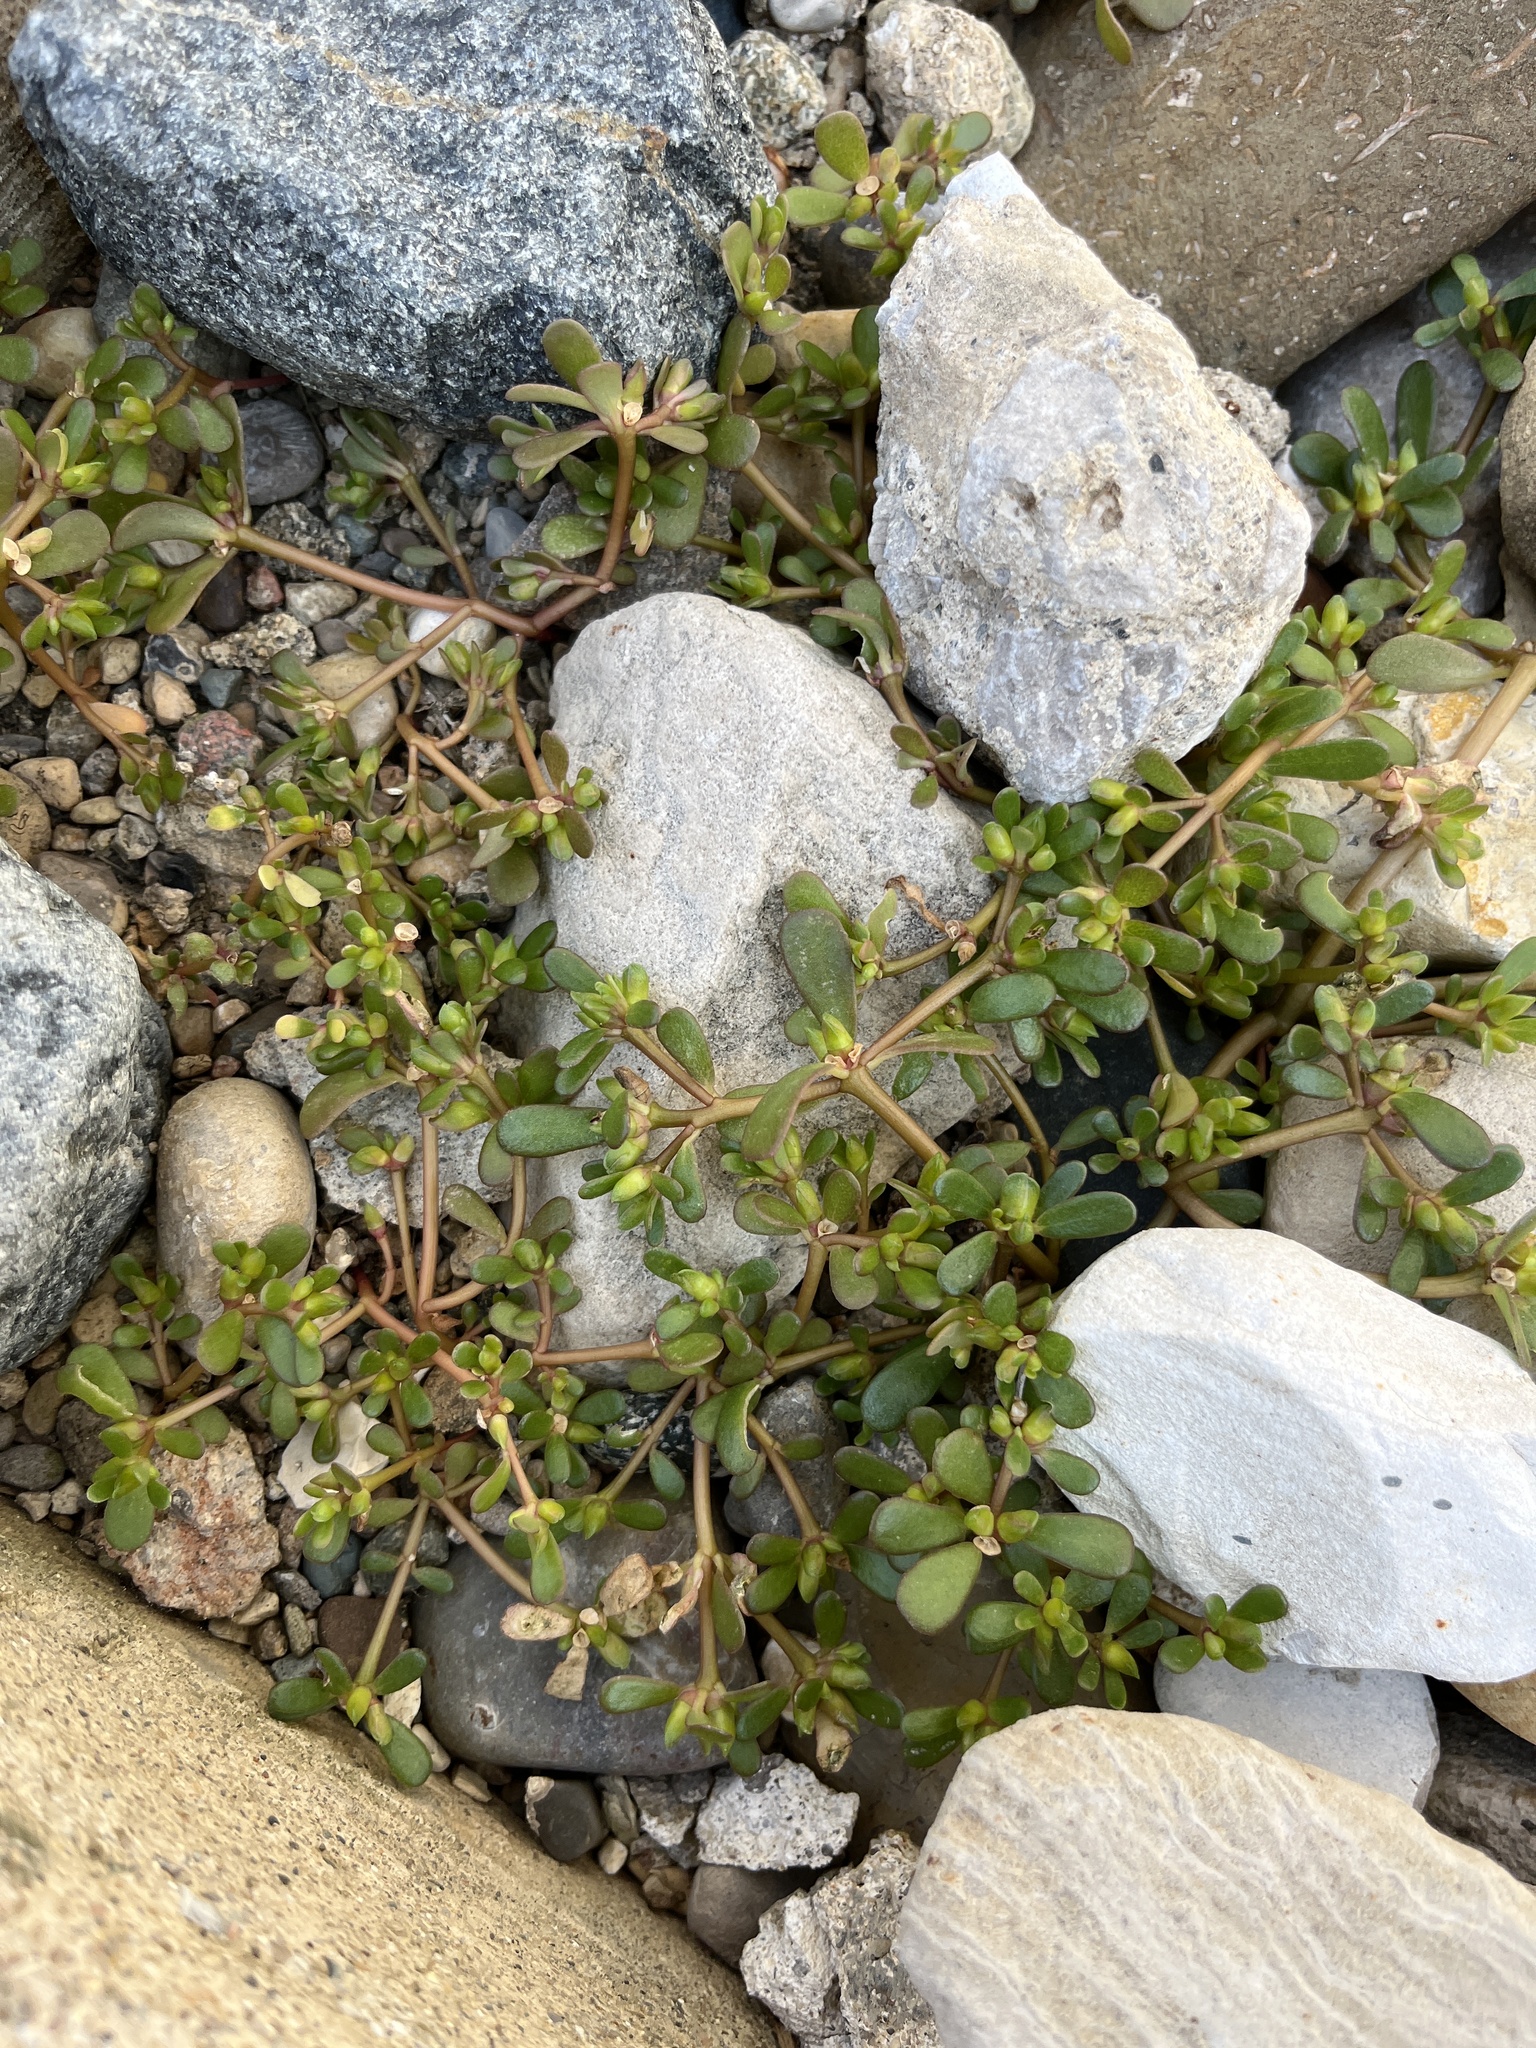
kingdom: Plantae
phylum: Tracheophyta
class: Magnoliopsida
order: Caryophyllales
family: Portulacaceae
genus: Portulaca
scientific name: Portulaca oleracea
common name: Common purslane
